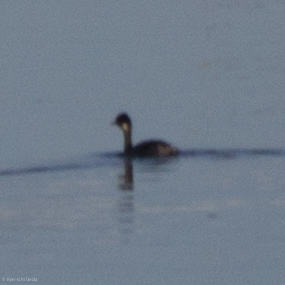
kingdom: Animalia
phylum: Chordata
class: Aves
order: Podicipediformes
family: Podicipedidae
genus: Podiceps
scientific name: Podiceps nigricollis
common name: Black-necked grebe
